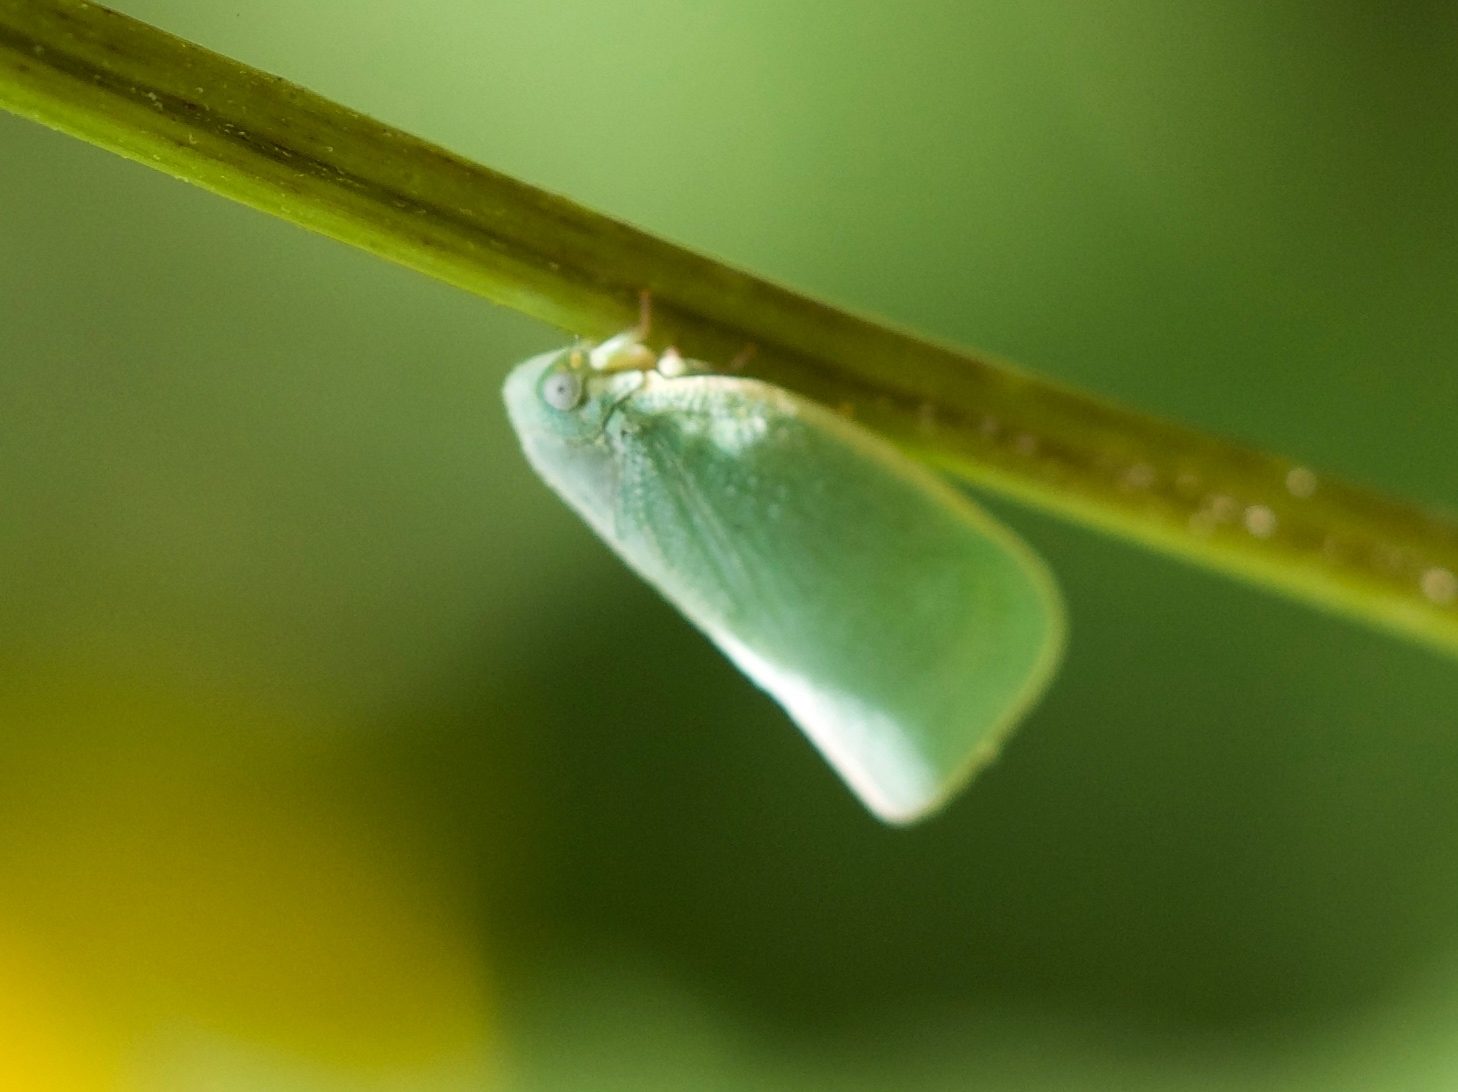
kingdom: Animalia
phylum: Arthropoda
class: Insecta
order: Hemiptera
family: Flatidae
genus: Flatormenis
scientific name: Flatormenis proxima
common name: Northern flatid planthopper
